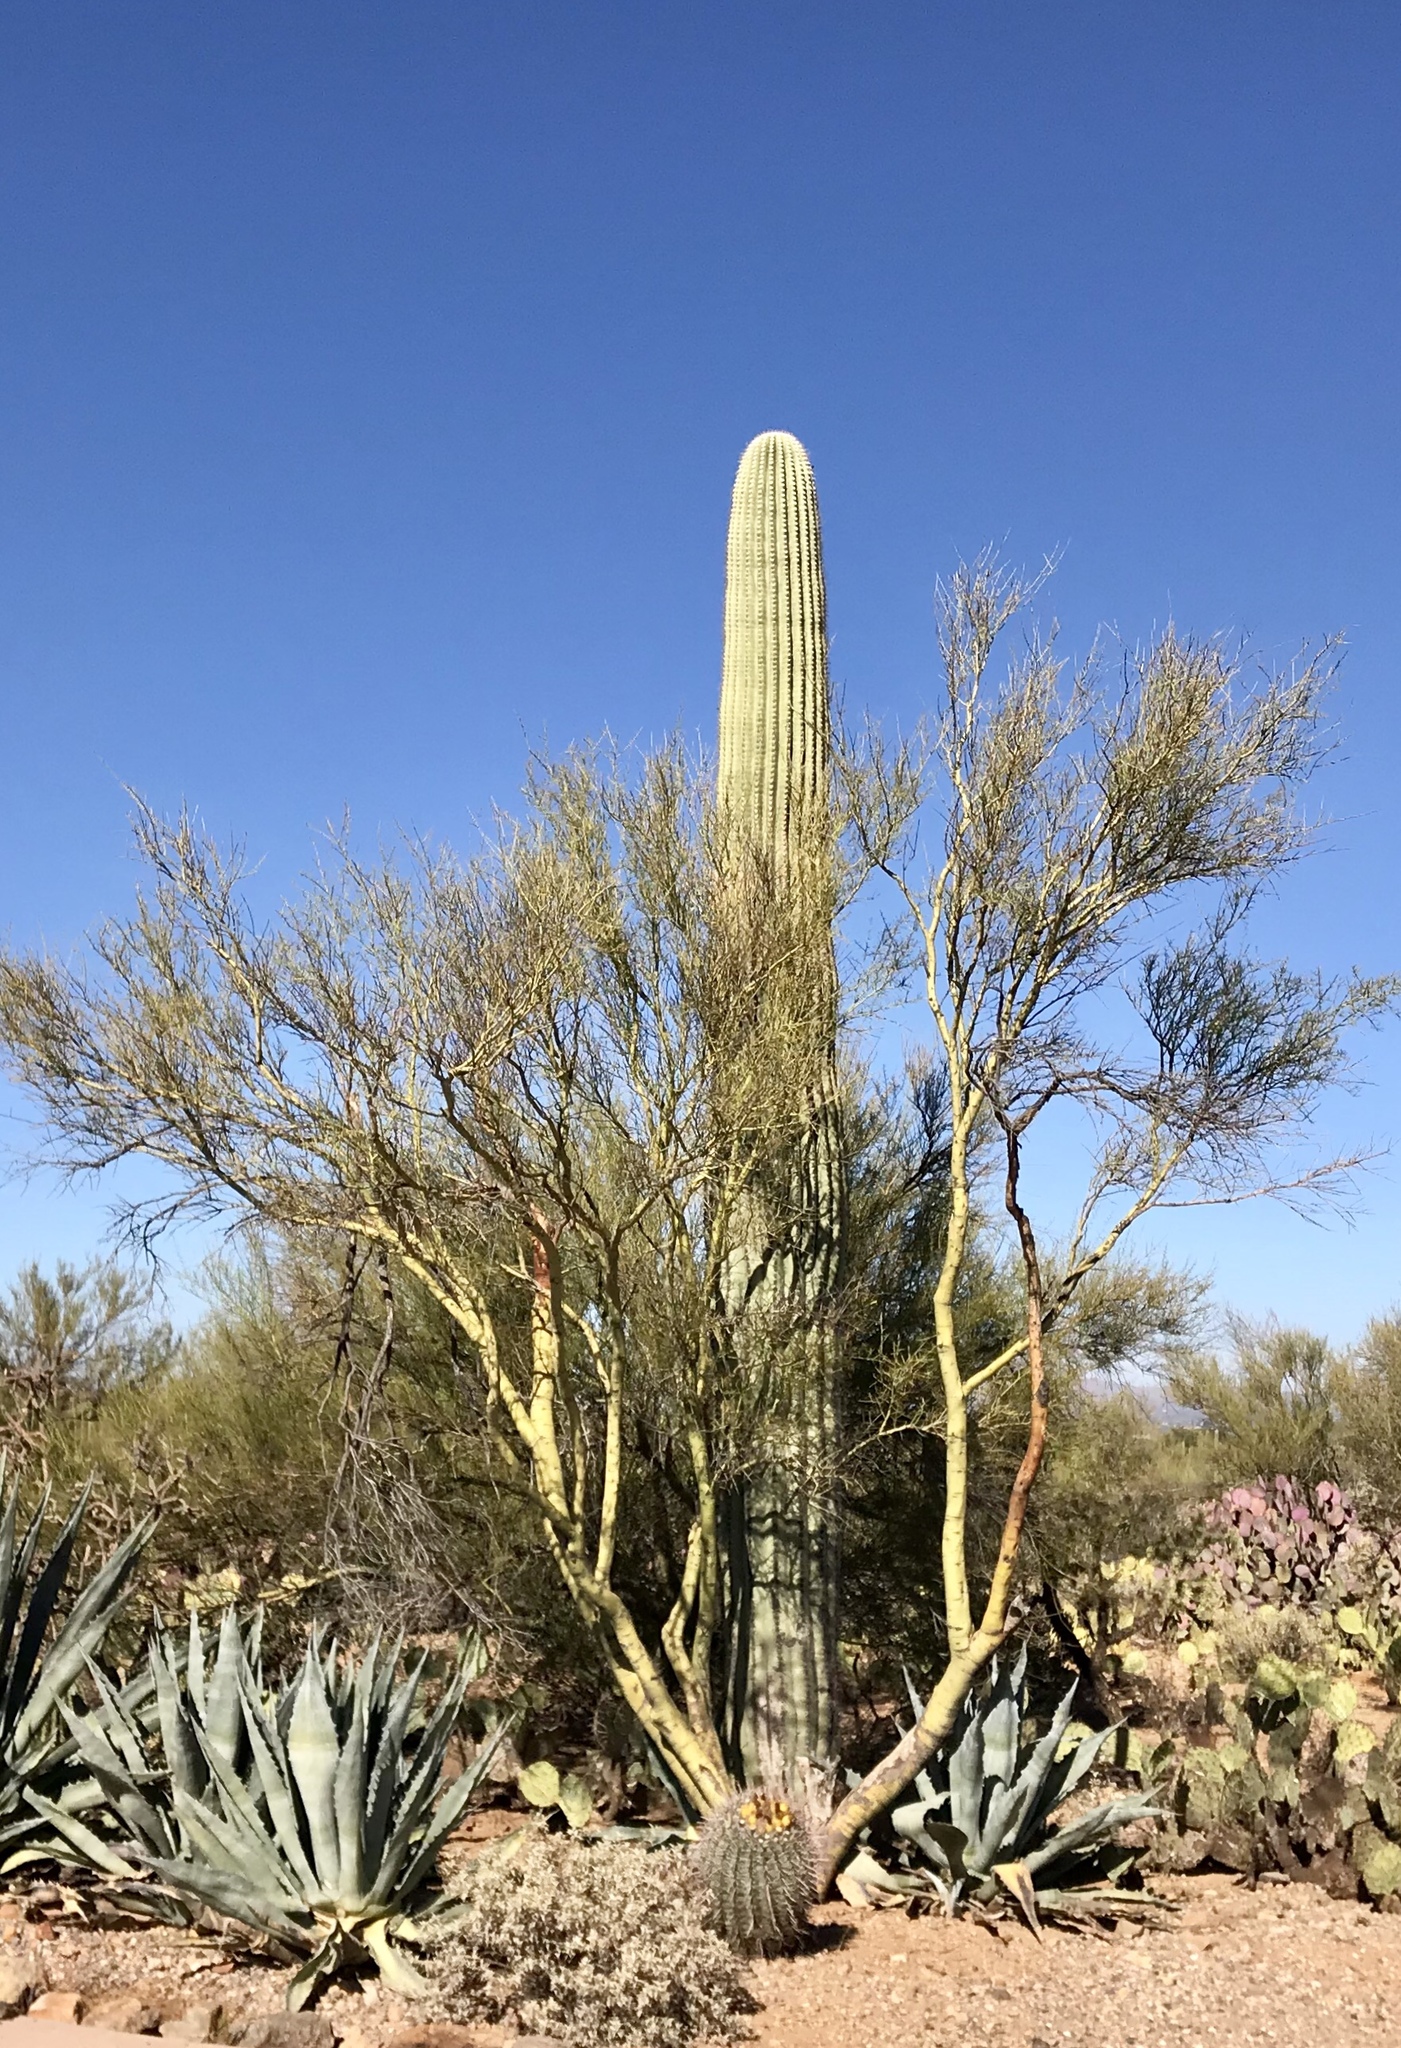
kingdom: Plantae
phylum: Tracheophyta
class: Magnoliopsida
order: Caryophyllales
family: Cactaceae
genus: Carnegiea
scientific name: Carnegiea gigantea
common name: Saguaro
